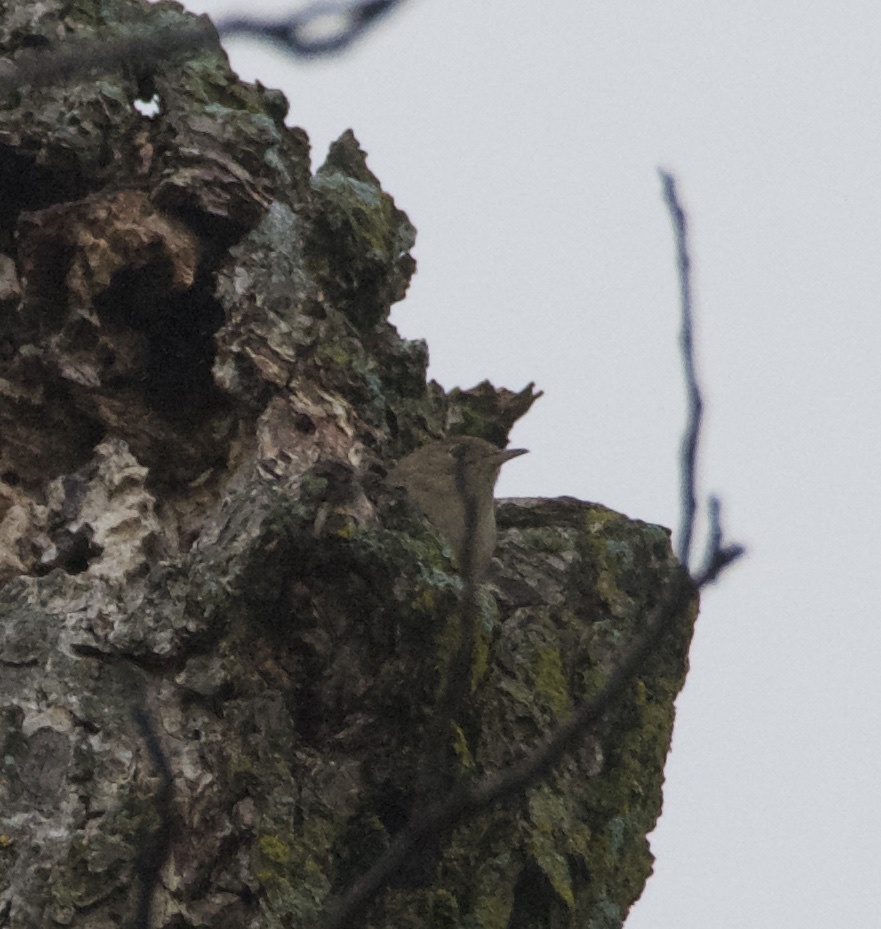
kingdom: Animalia
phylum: Chordata
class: Aves
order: Passeriformes
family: Troglodytidae
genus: Troglodytes
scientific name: Troglodytes aedon
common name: House wren
